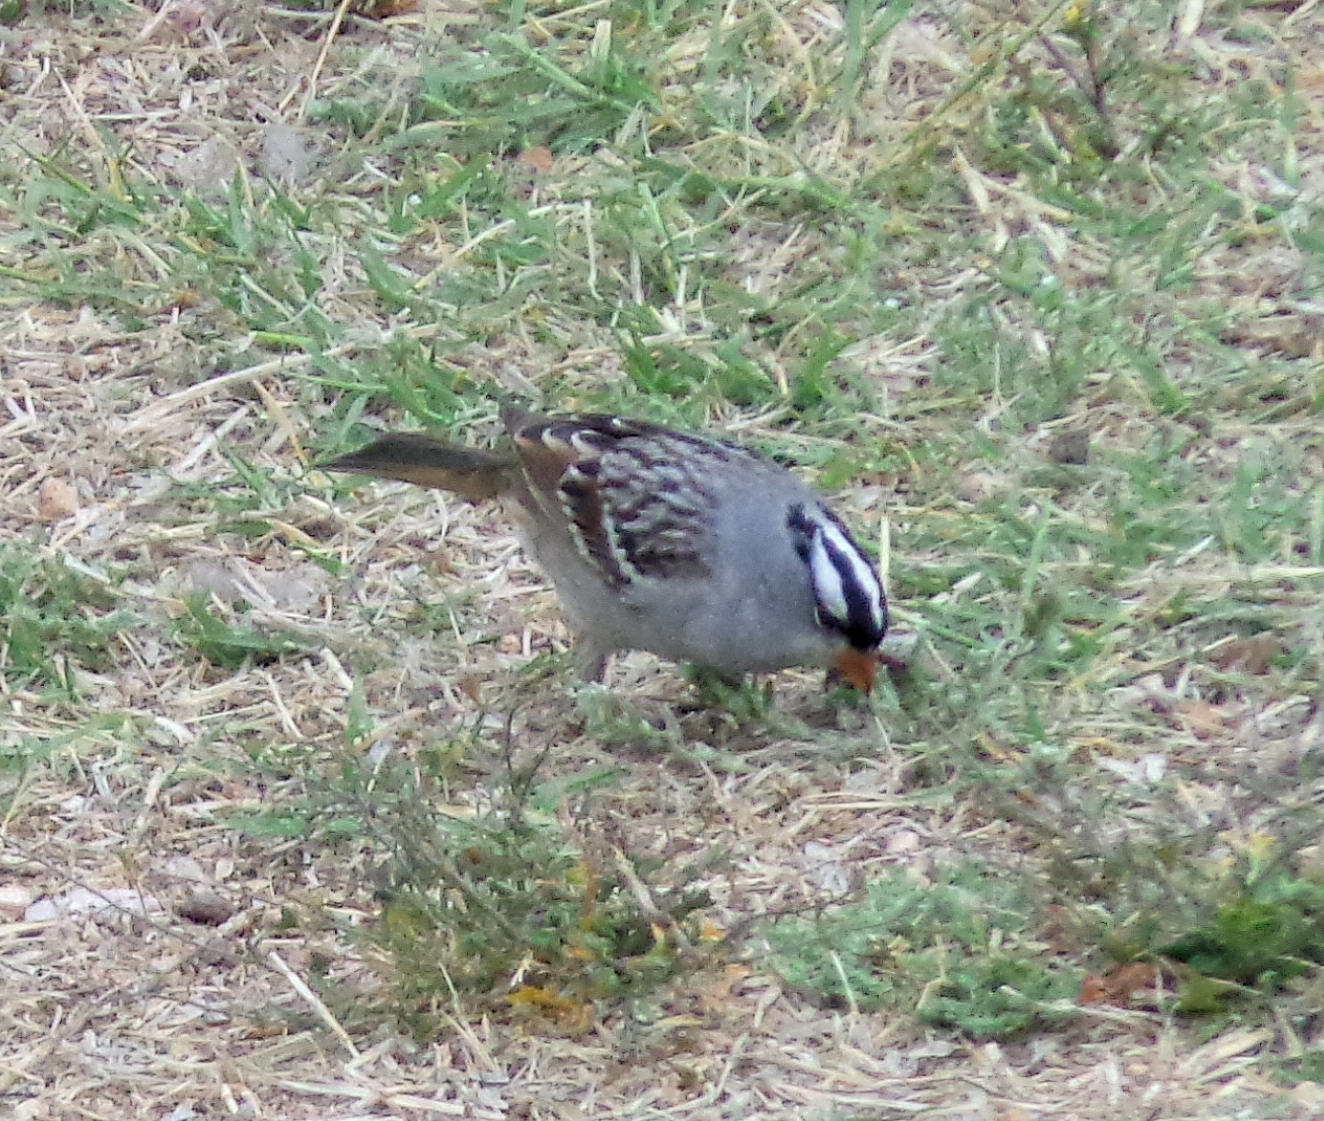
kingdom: Animalia
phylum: Chordata
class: Aves
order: Passeriformes
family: Passerellidae
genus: Zonotrichia
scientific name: Zonotrichia leucophrys
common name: White-crowned sparrow
